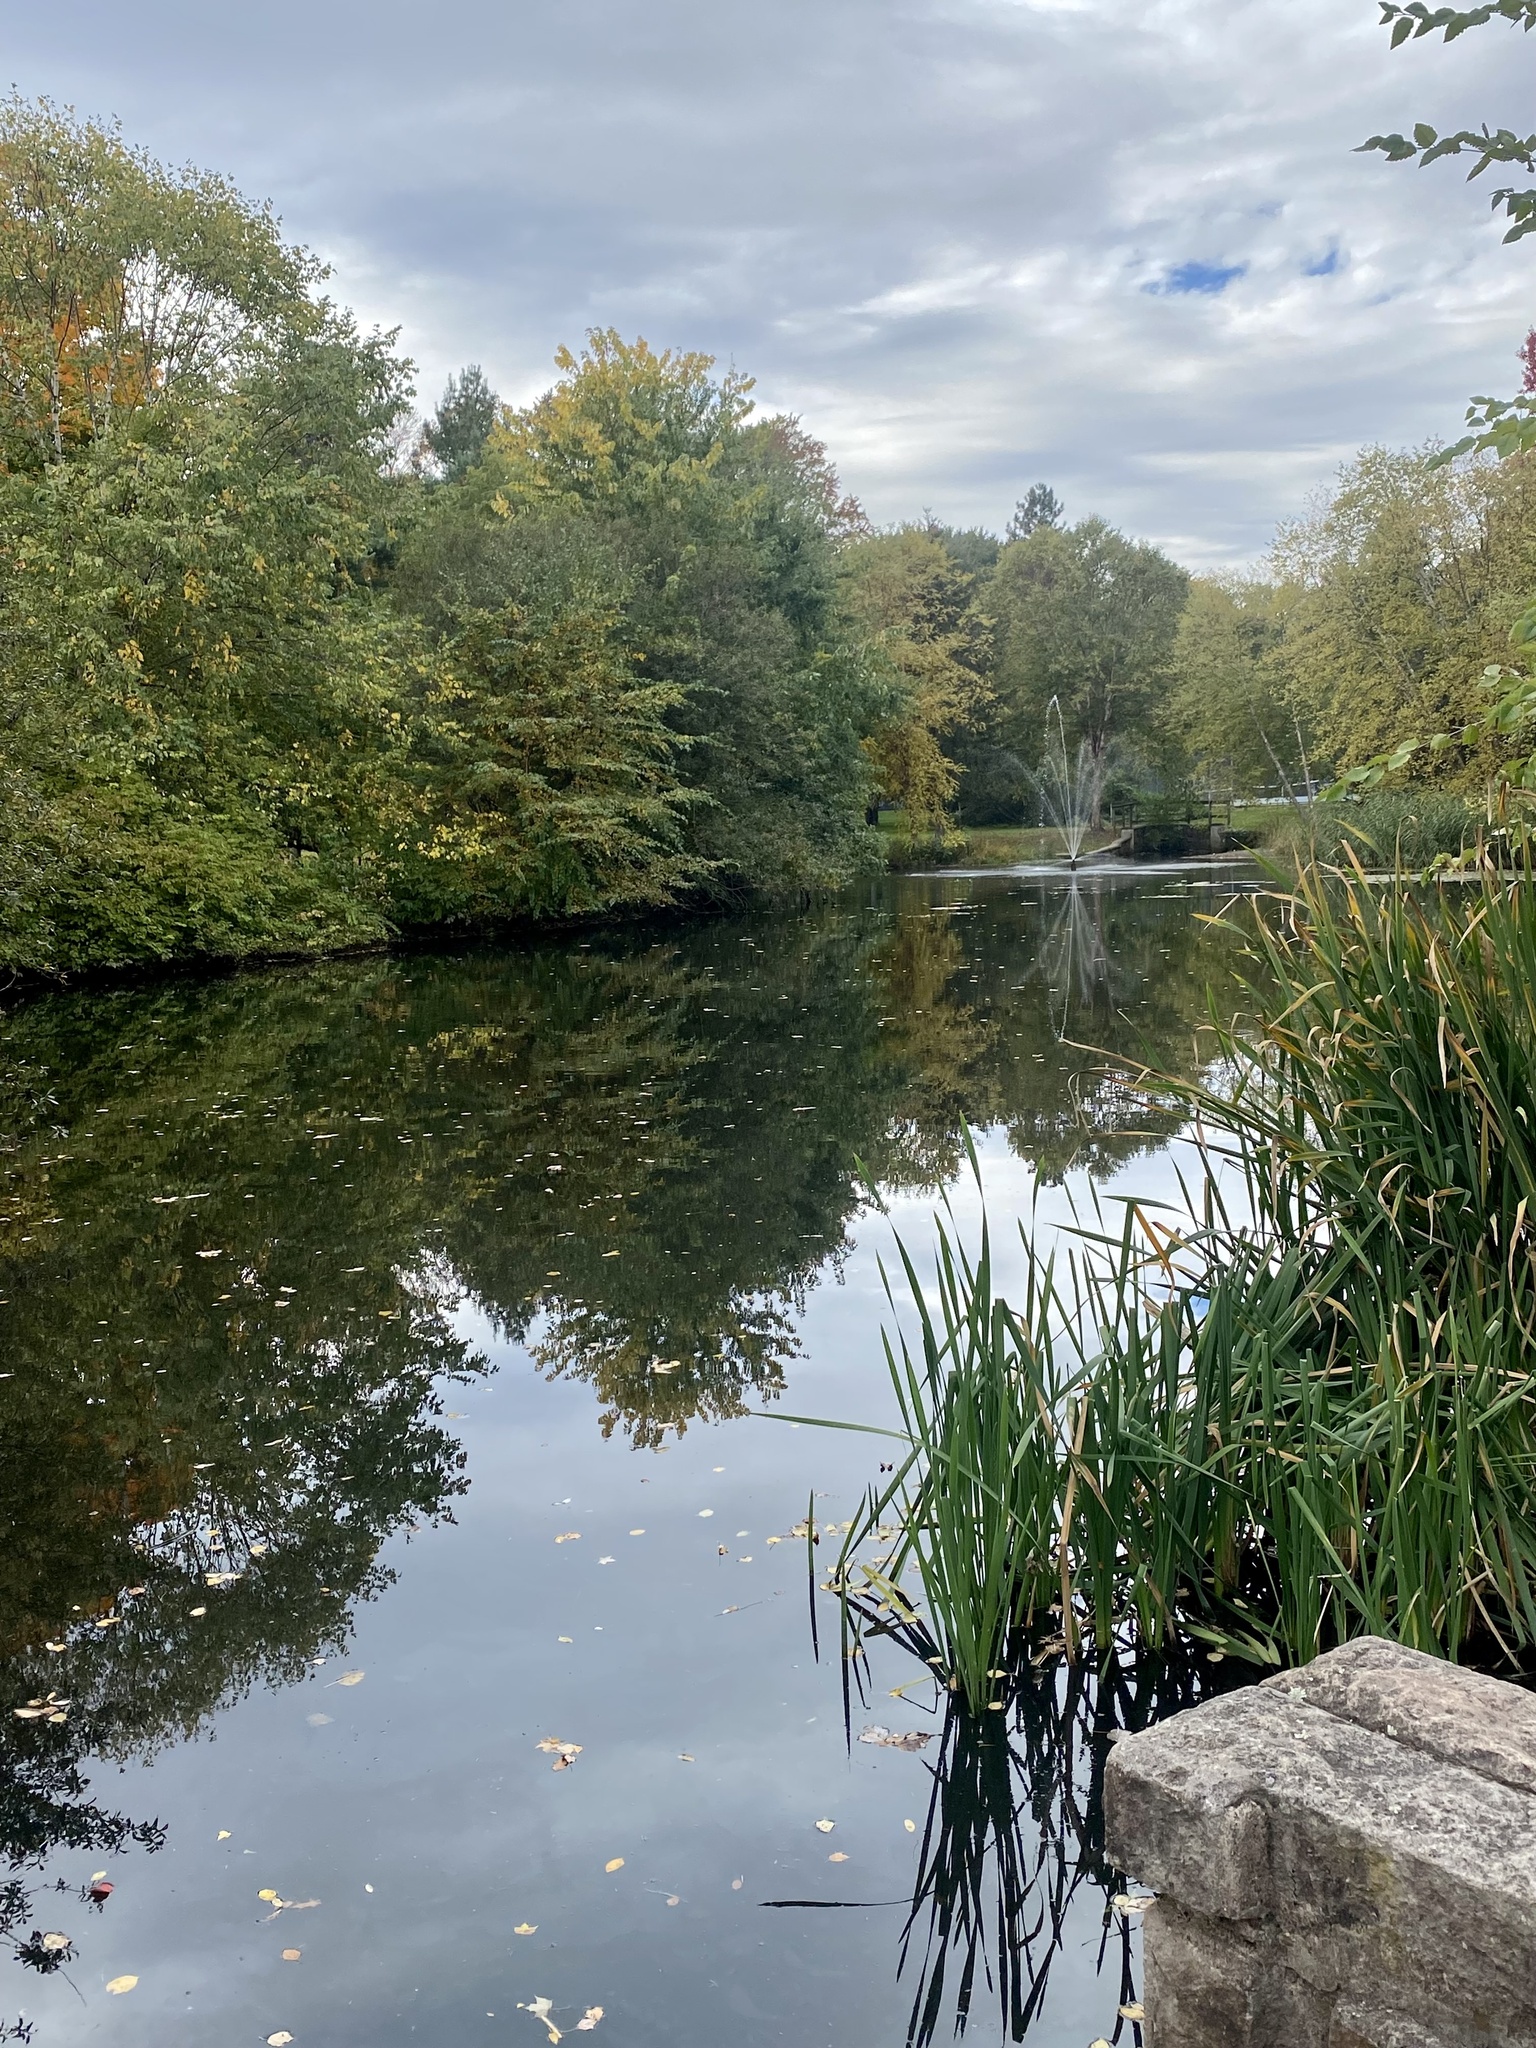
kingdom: Plantae
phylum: Tracheophyta
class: Liliopsida
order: Commelinales
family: Pontederiaceae
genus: Pontederia
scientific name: Pontederia cordata
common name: Pickerelweed
